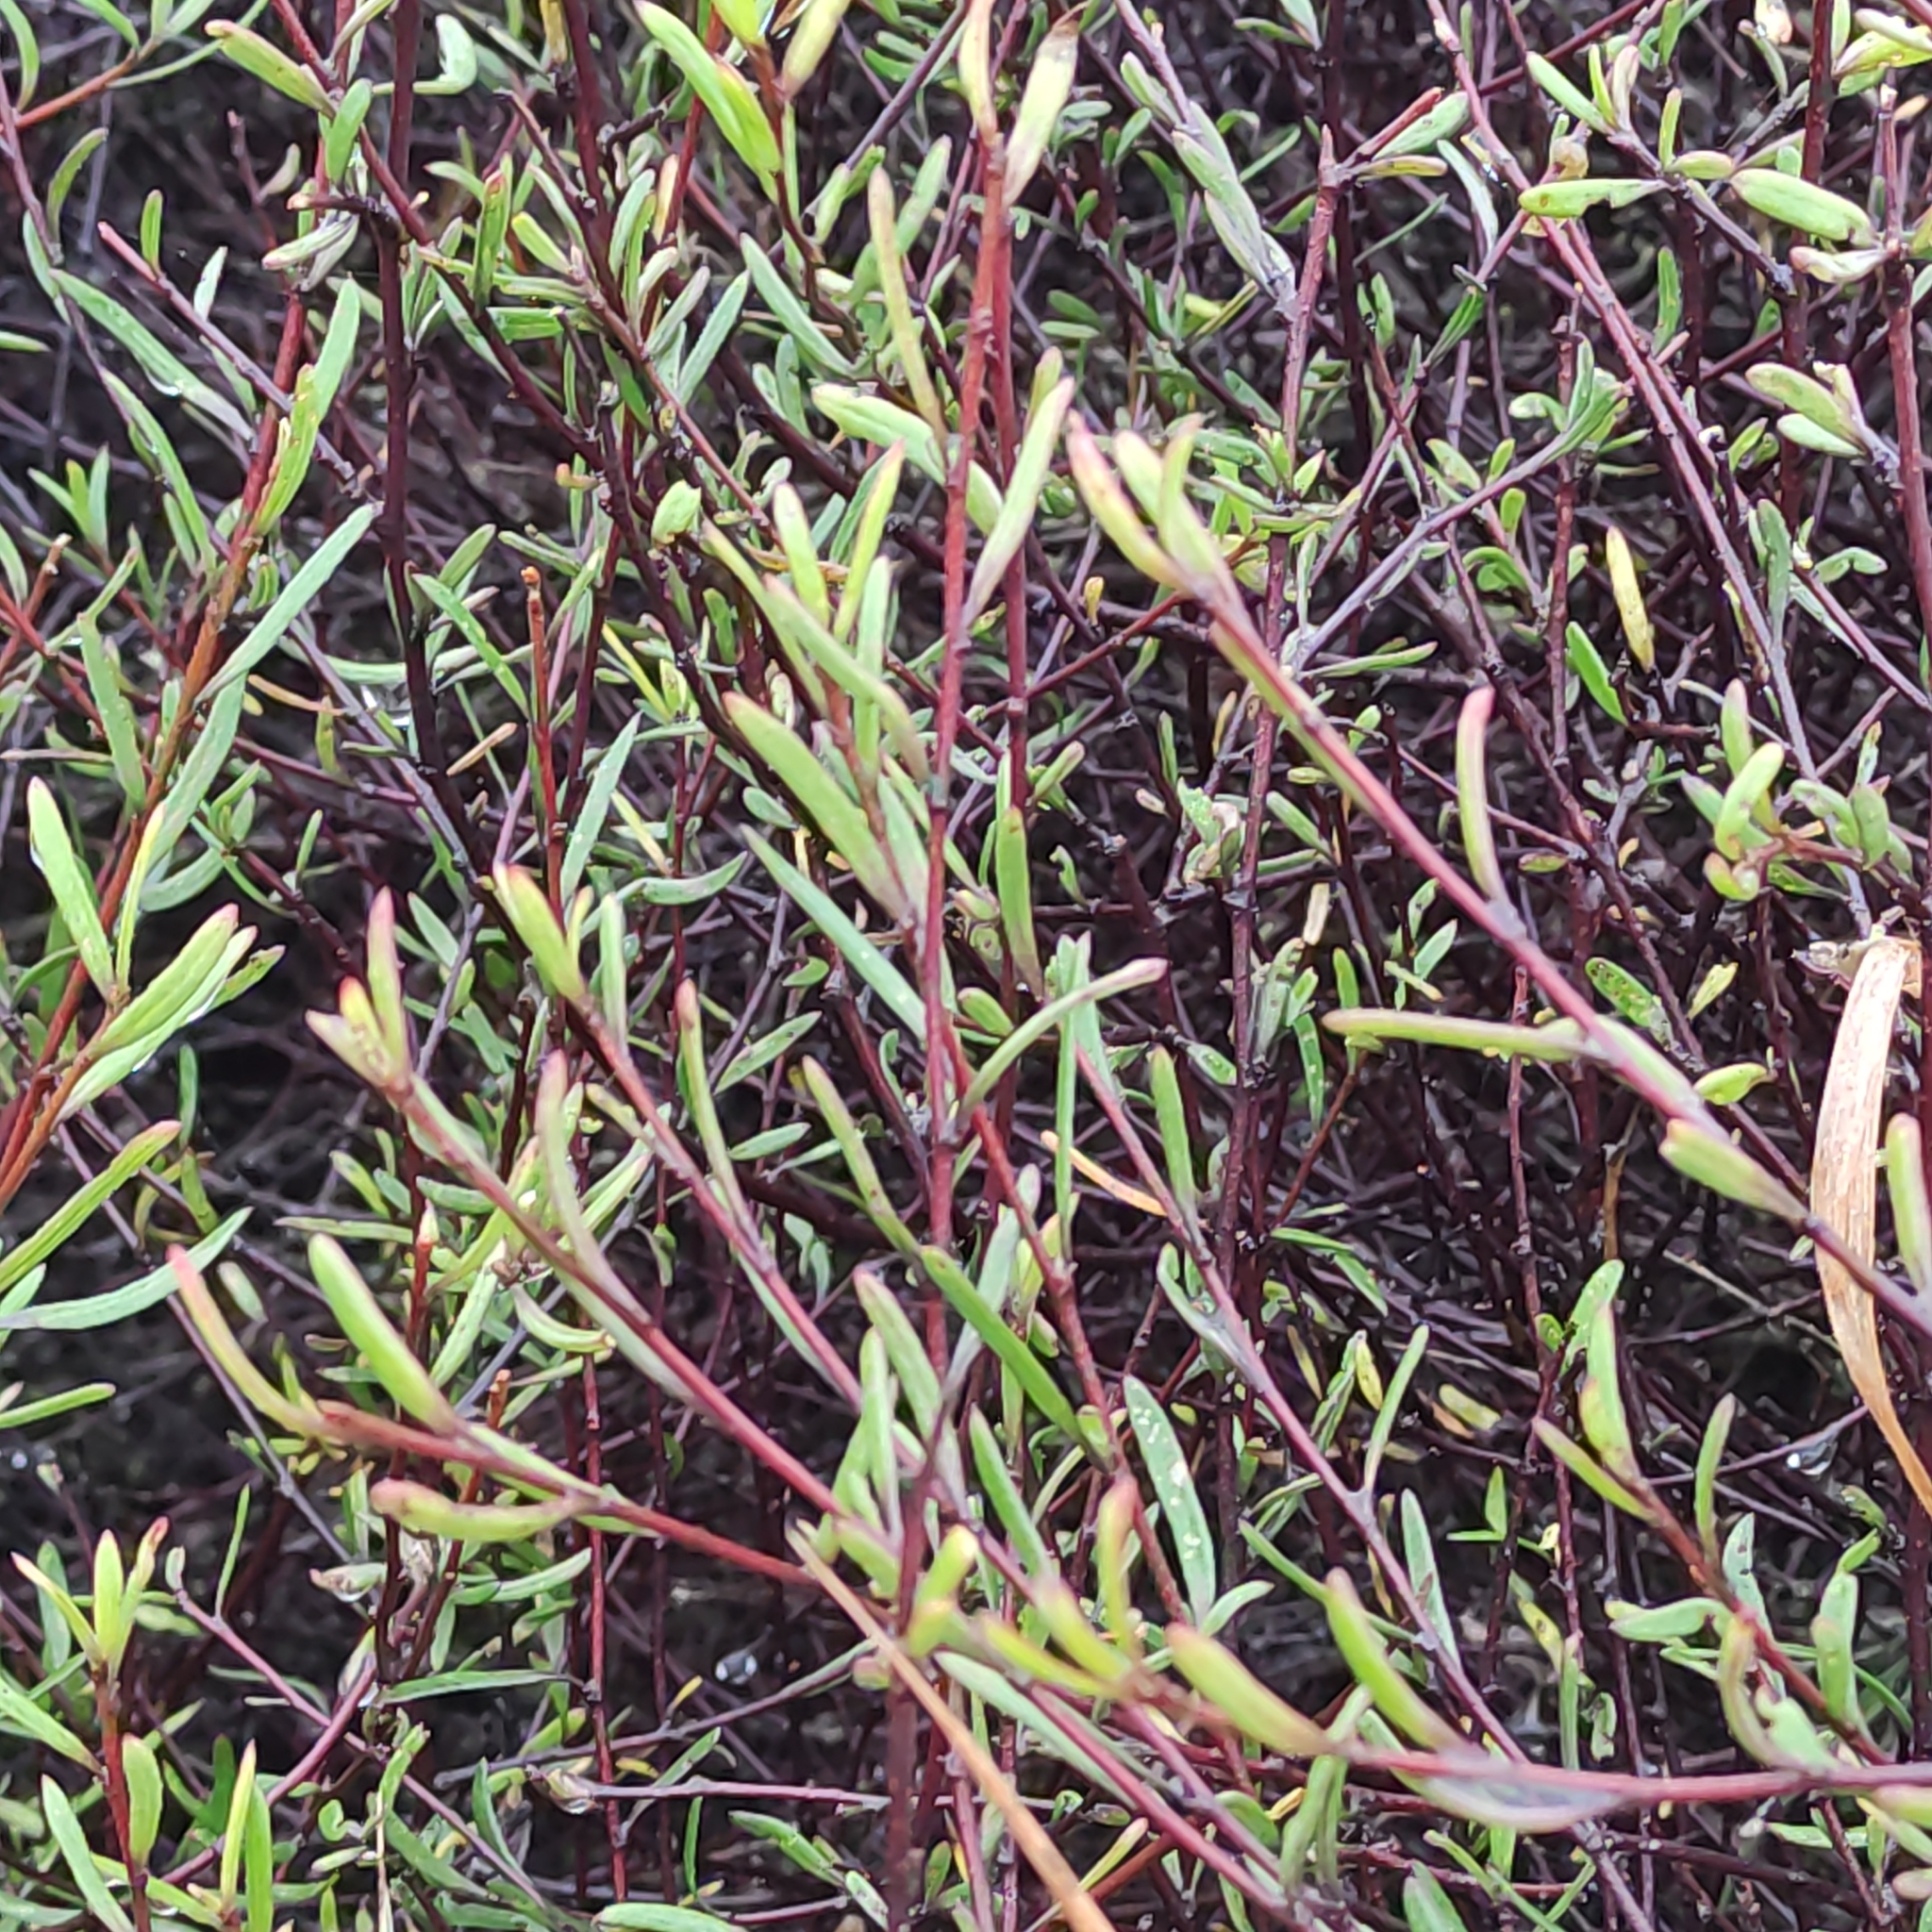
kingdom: Plantae
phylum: Tracheophyta
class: Magnoliopsida
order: Malvales
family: Malvaceae
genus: Plagianthus
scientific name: Plagianthus divaricatus
